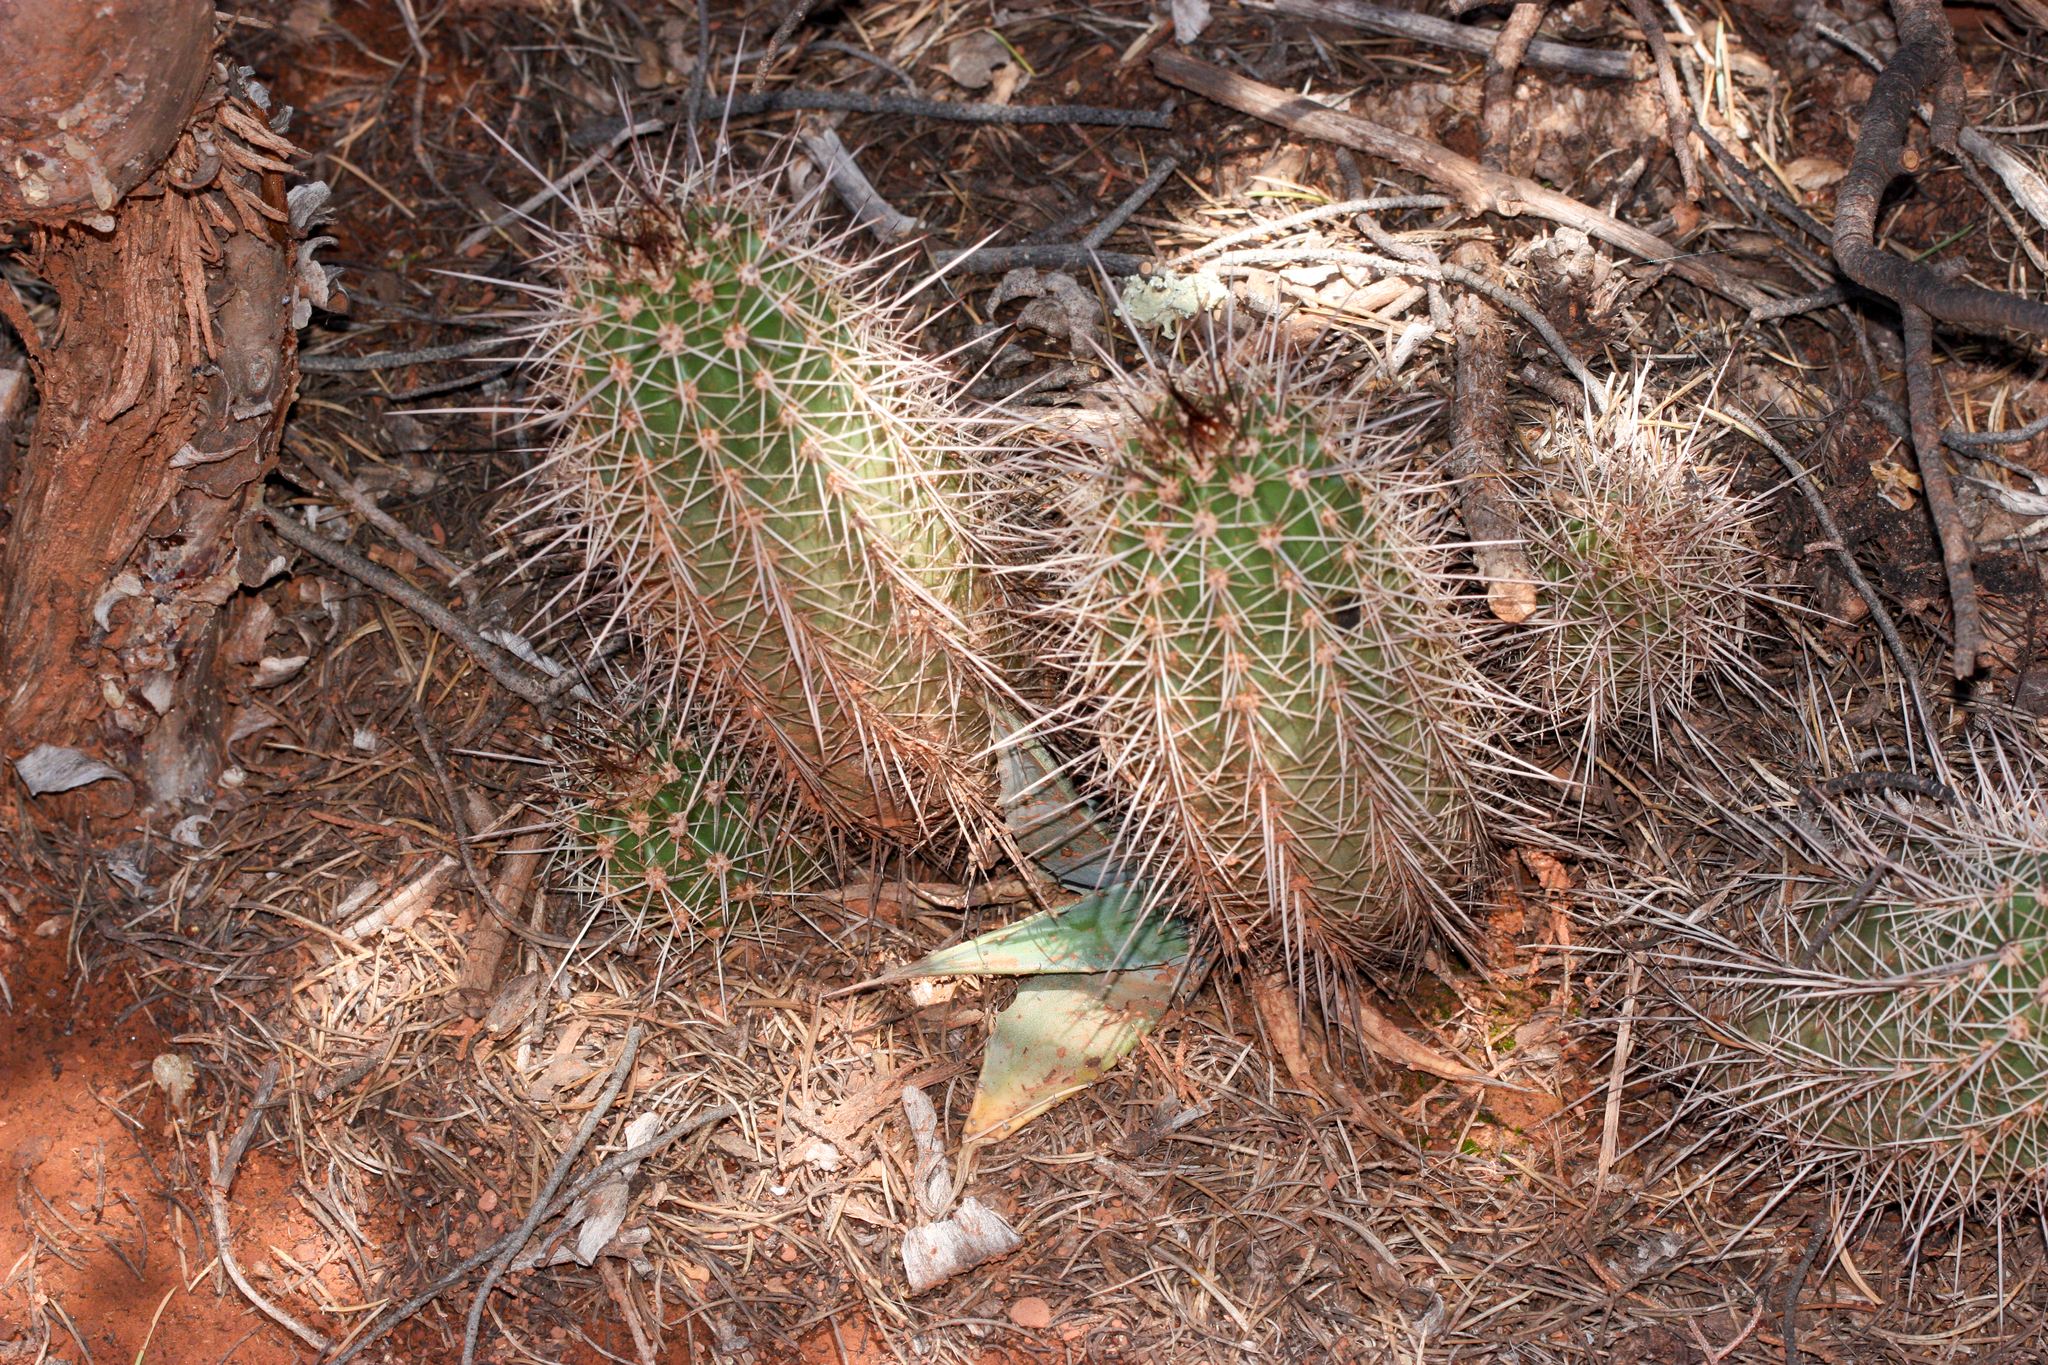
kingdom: Plantae
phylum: Tracheophyta
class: Magnoliopsida
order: Caryophyllales
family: Cactaceae
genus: Echinocereus
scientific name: Echinocereus bakeri
